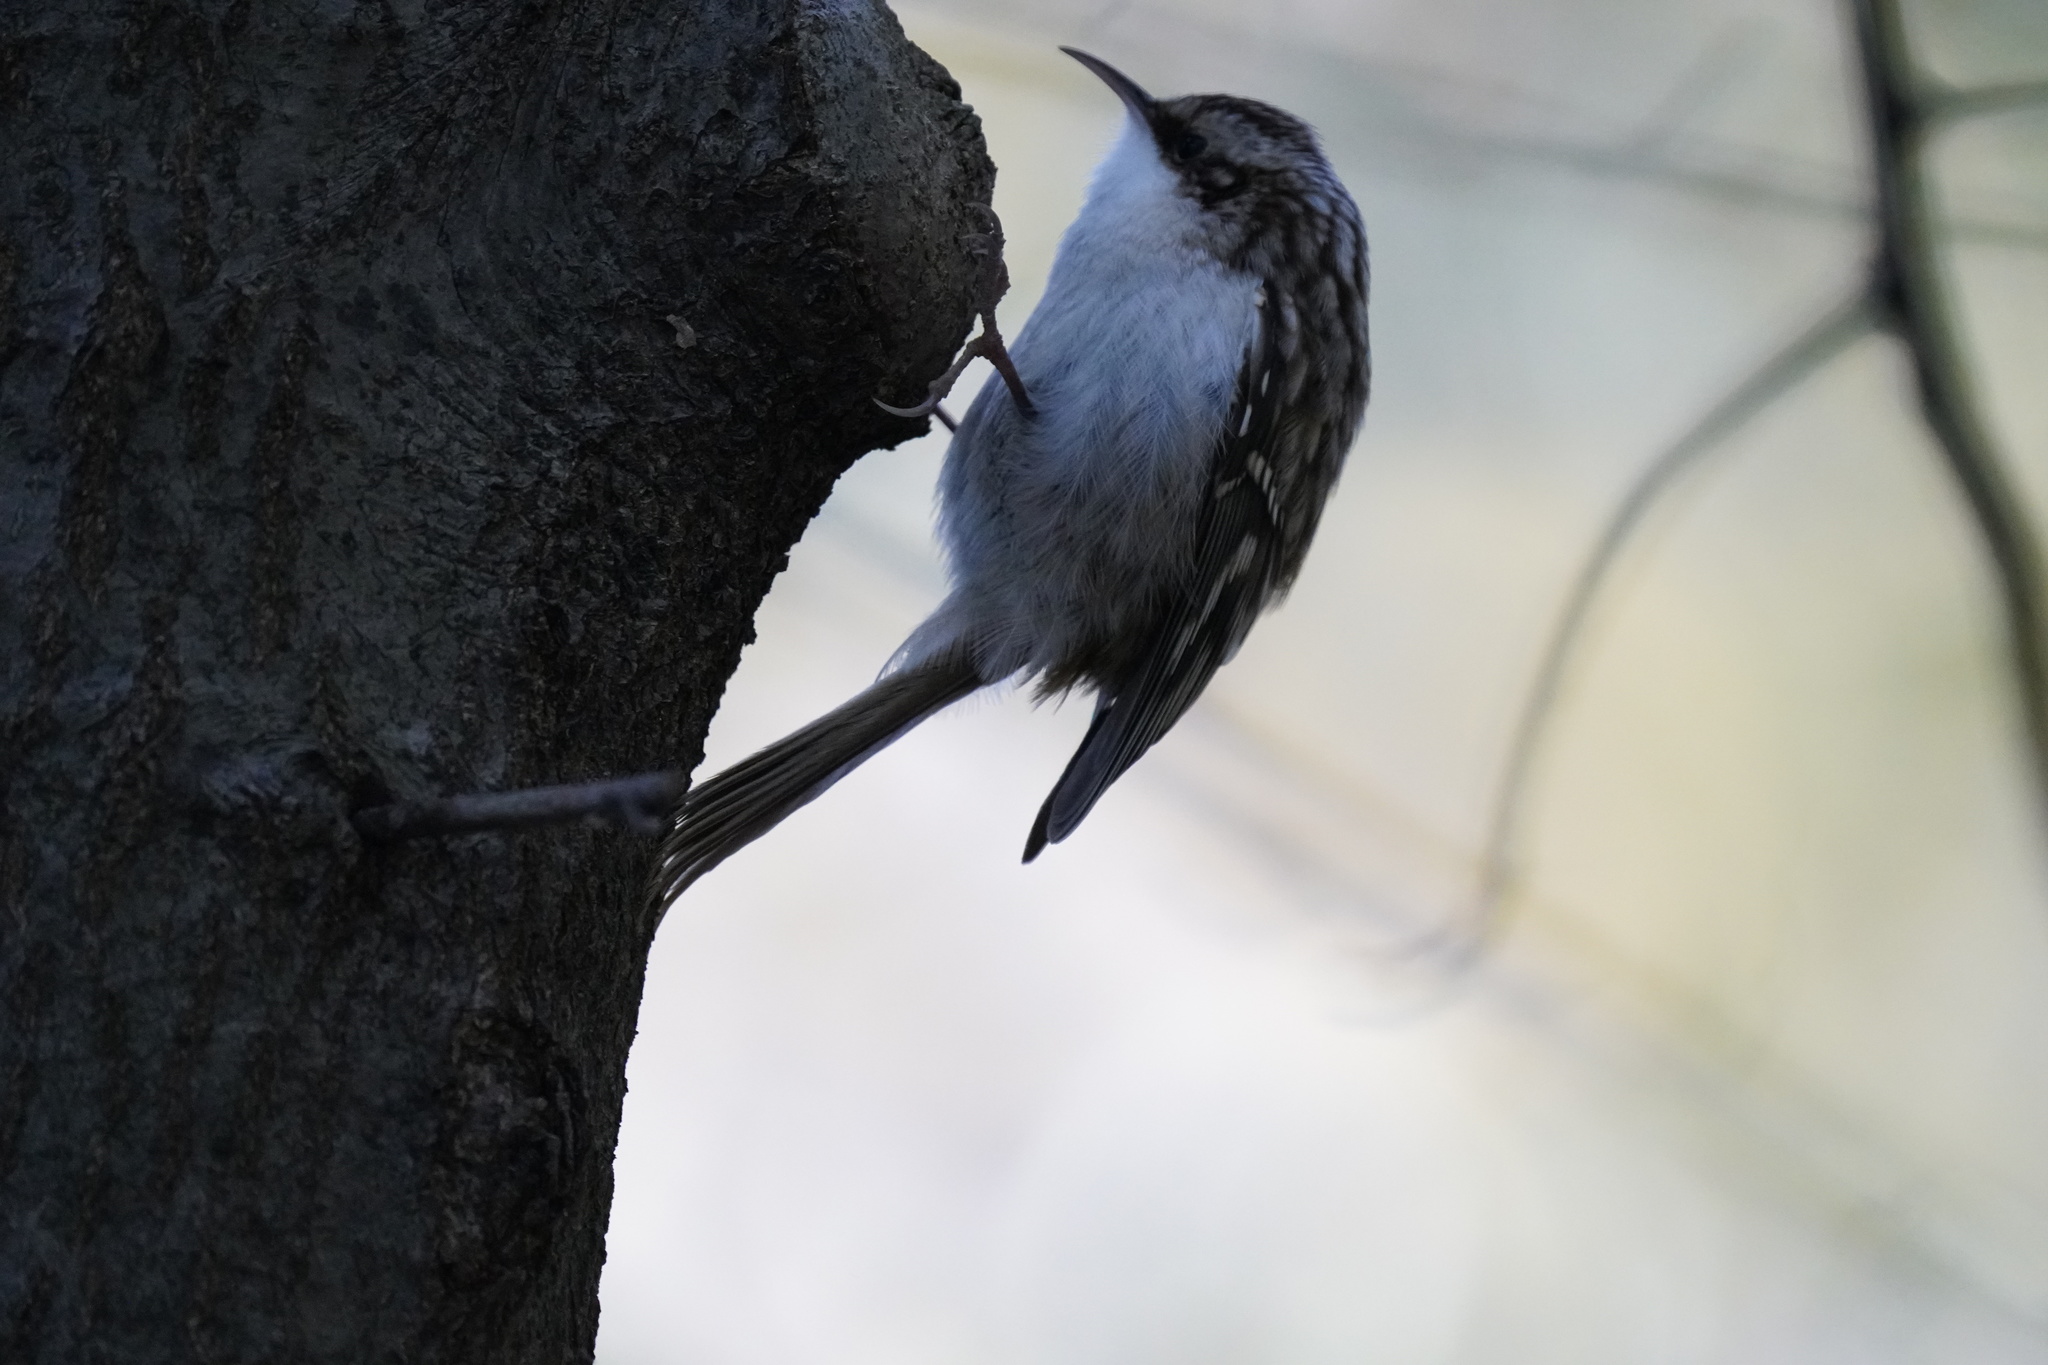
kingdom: Animalia
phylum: Chordata
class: Aves
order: Passeriformes
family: Certhiidae
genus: Certhia
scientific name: Certhia americana
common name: Brown creeper
